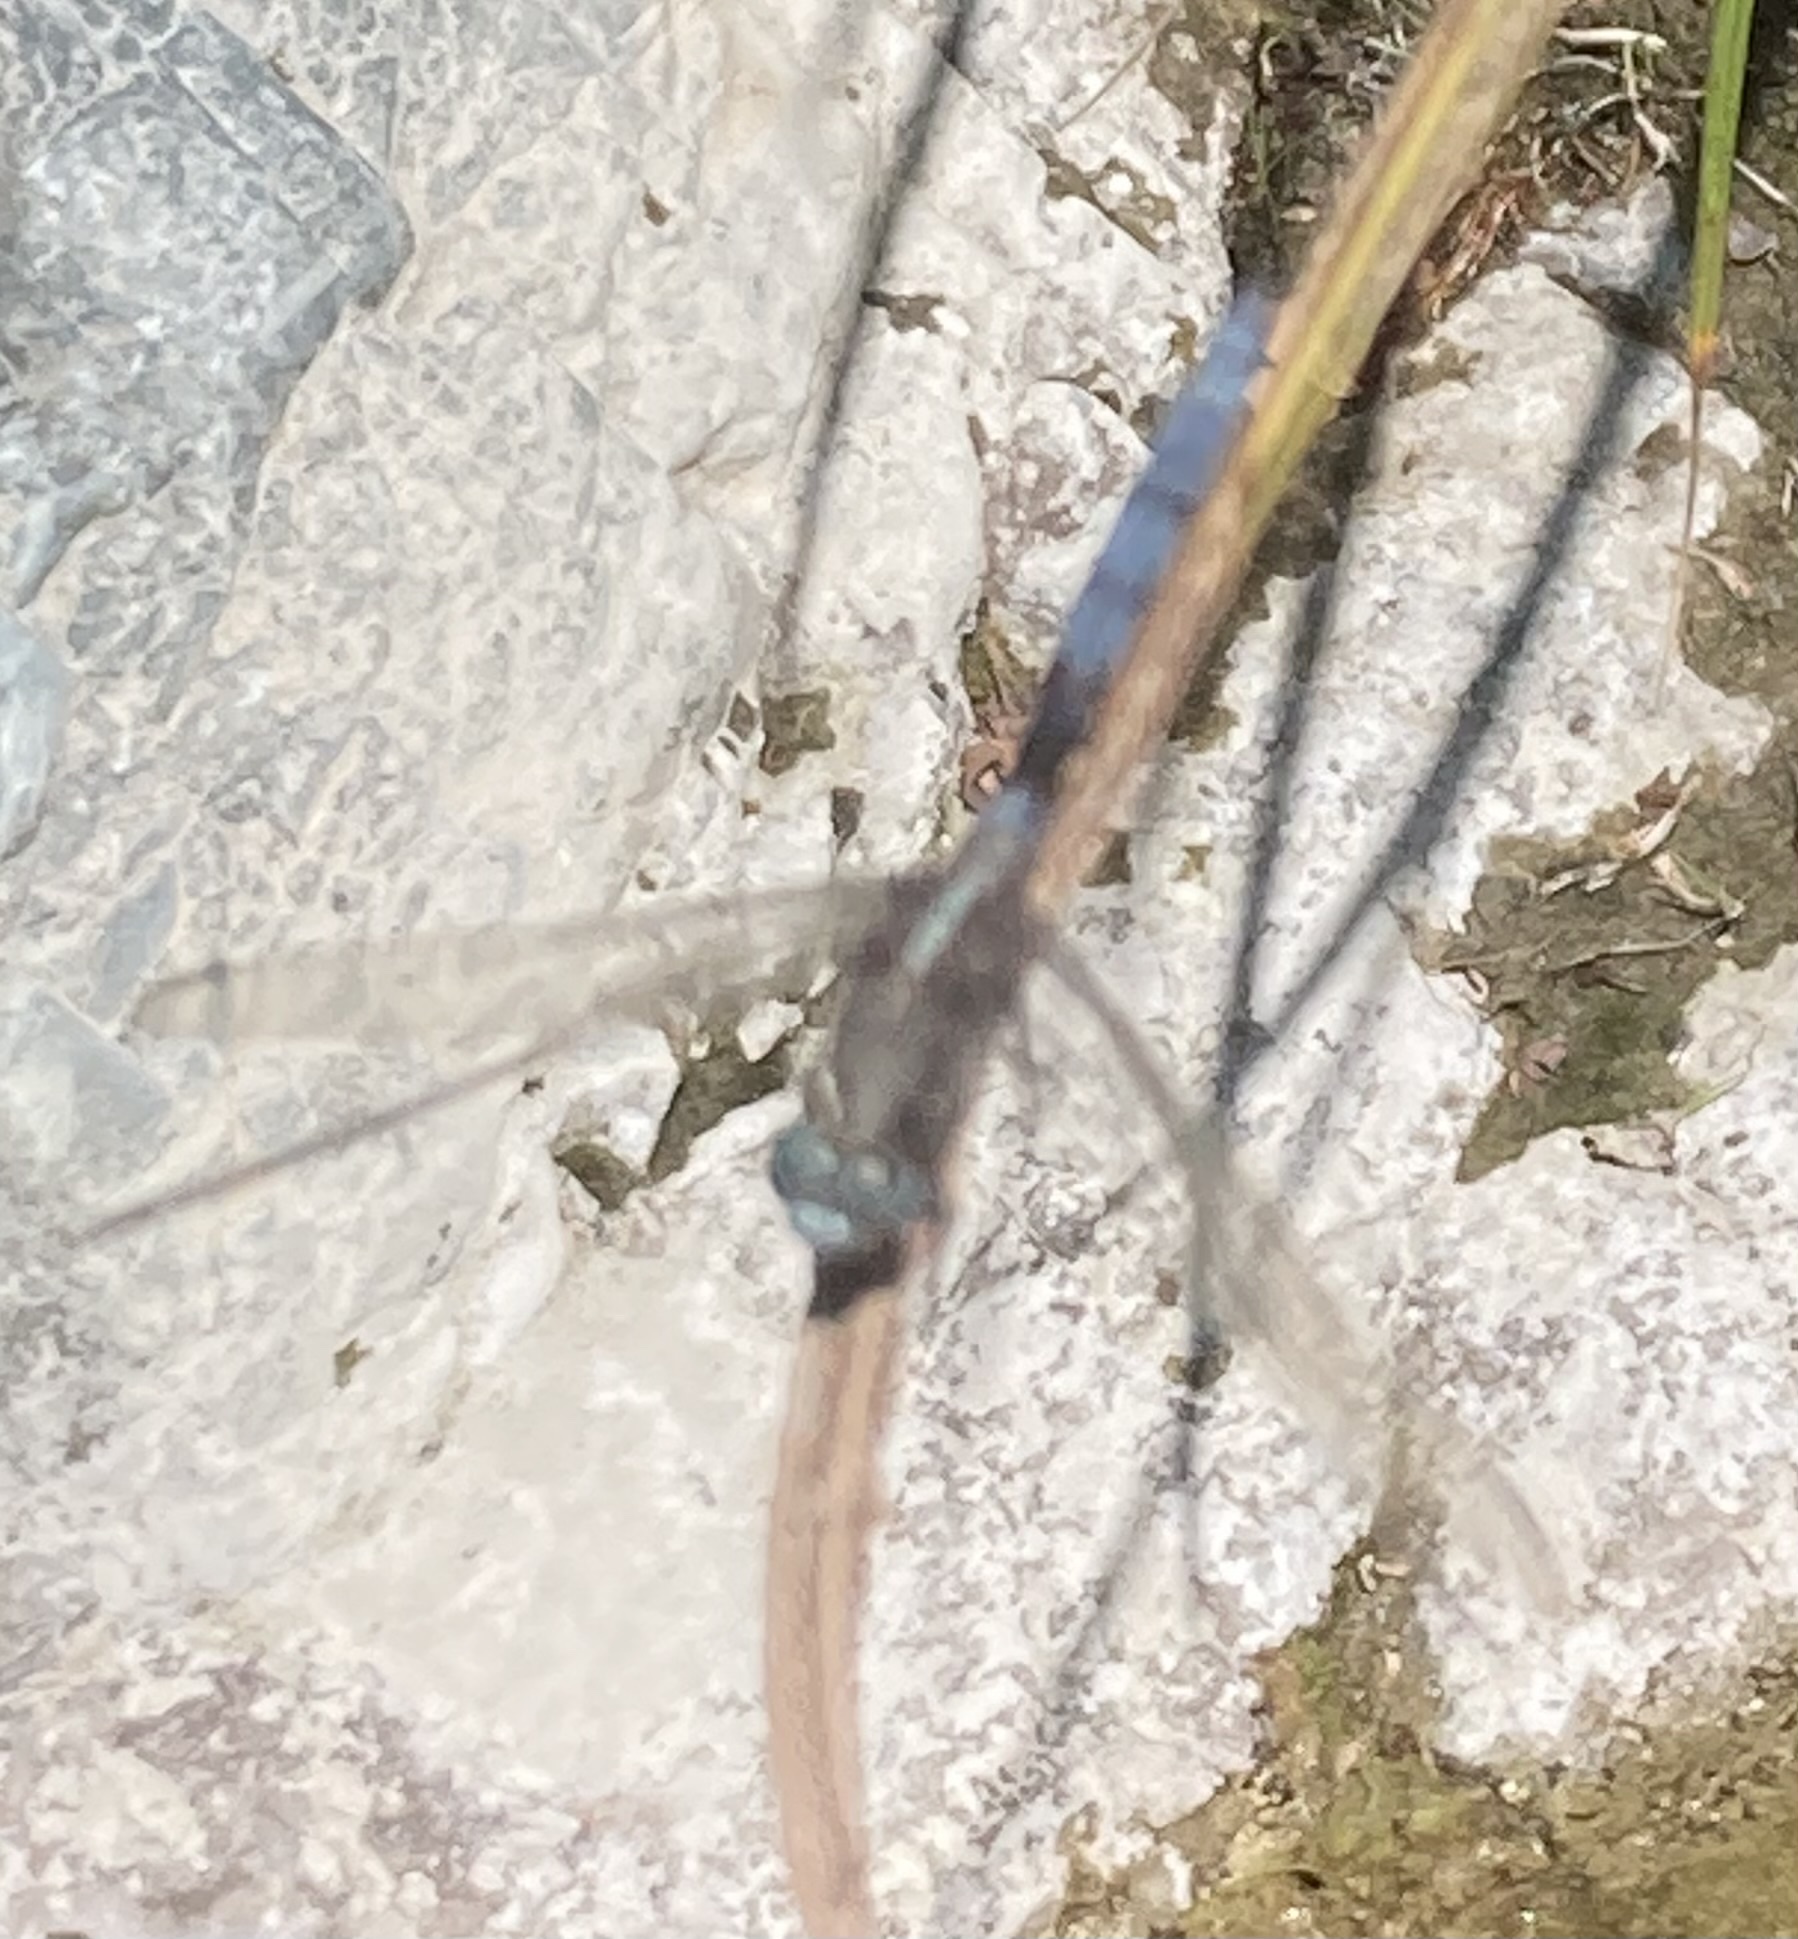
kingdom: Animalia
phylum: Arthropoda
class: Insecta
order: Odonata
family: Libellulidae
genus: Orthetrum
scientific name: Orthetrum chrysostigma
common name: Epaulet skimmer
